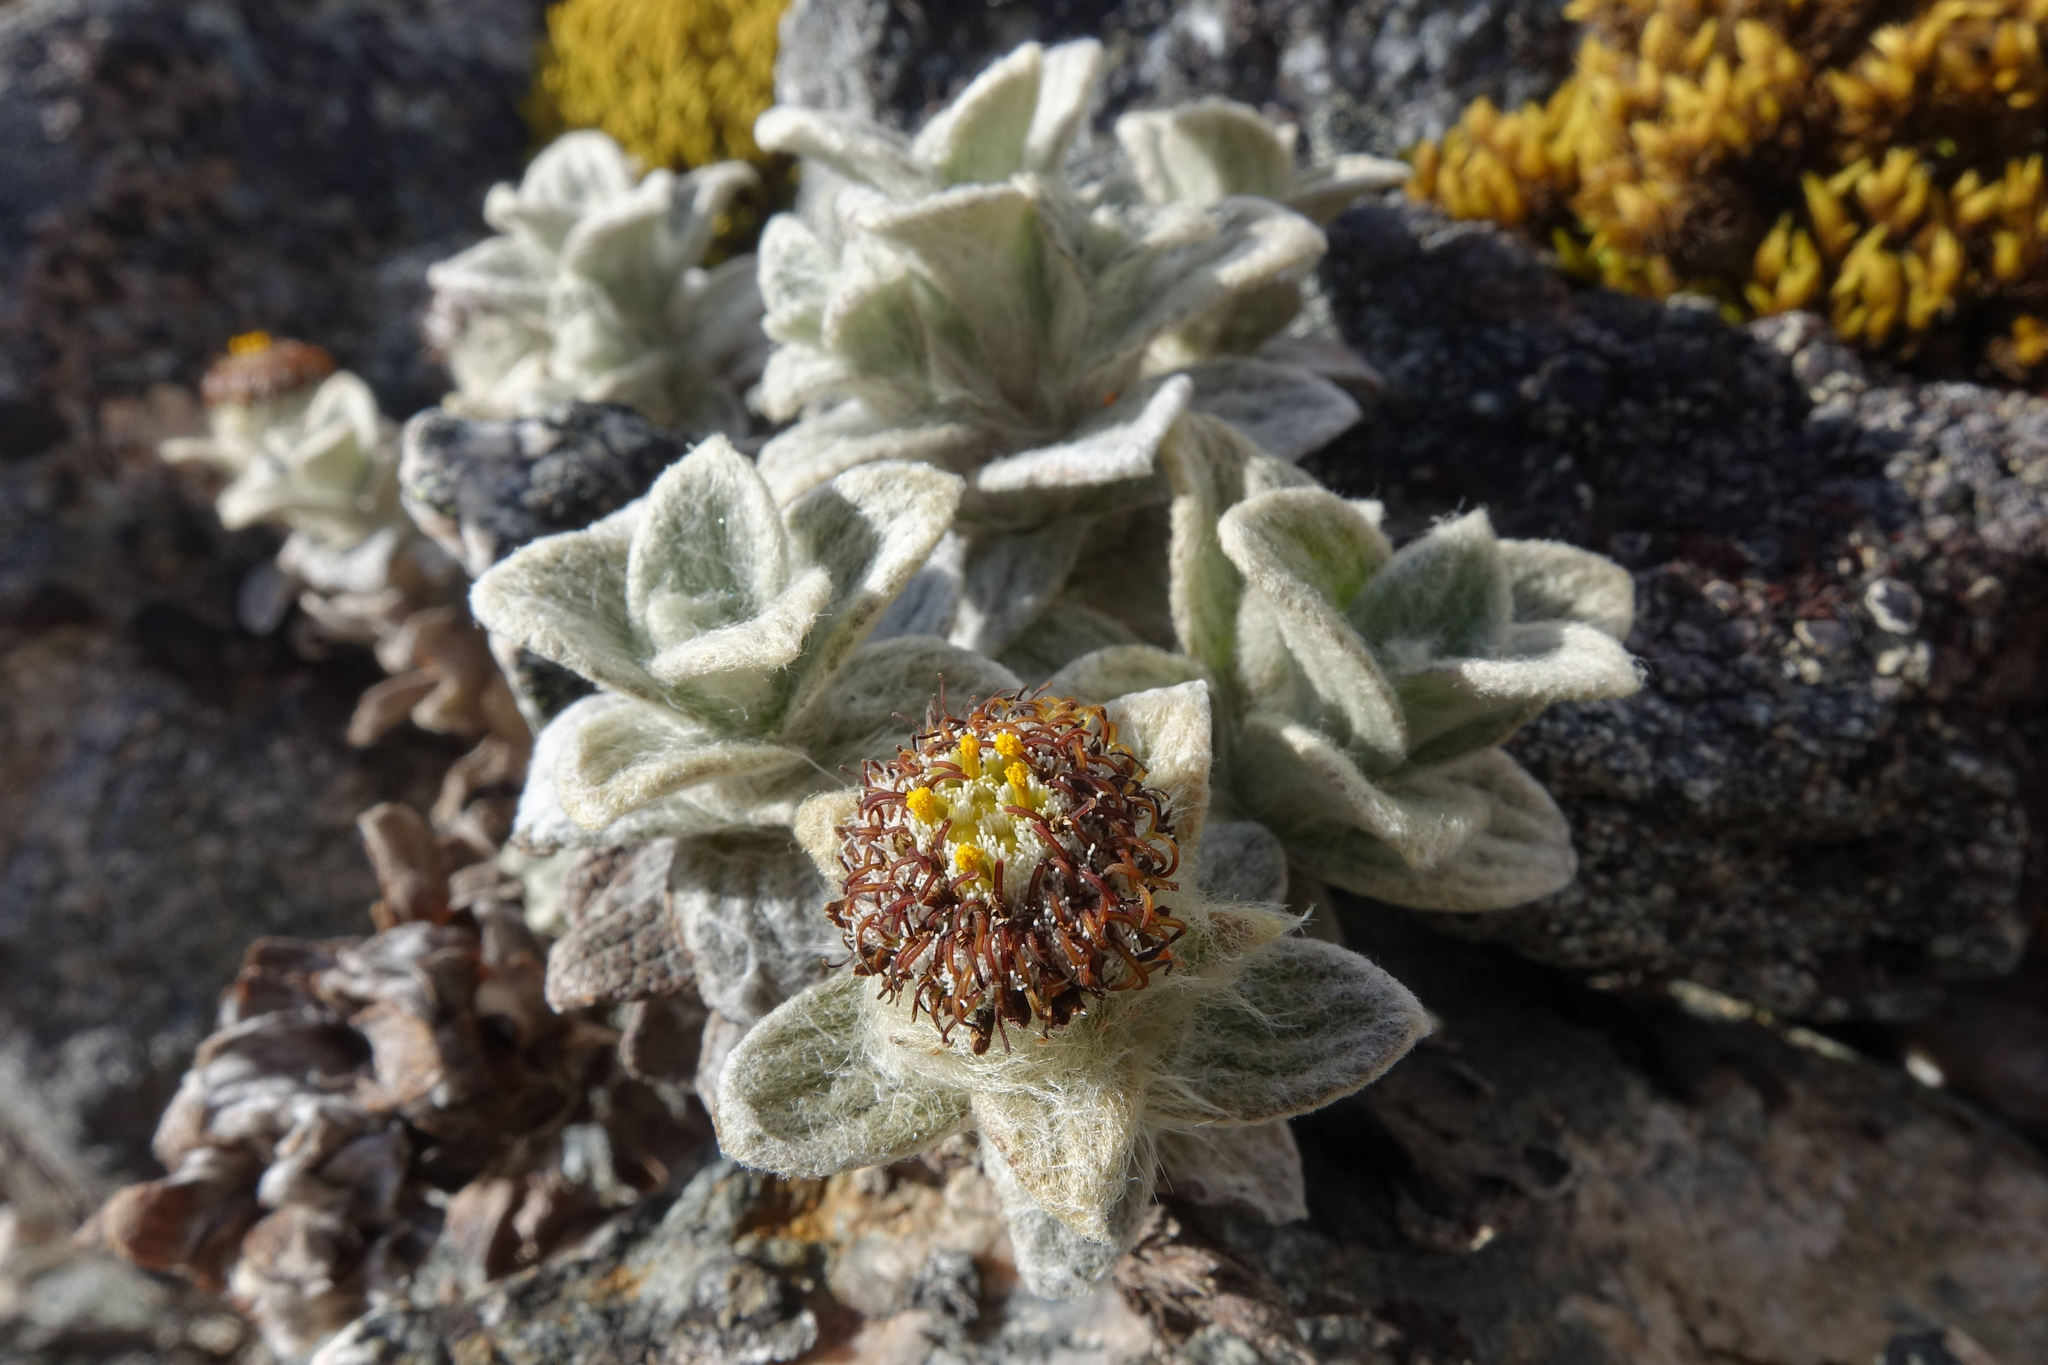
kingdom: Plantae
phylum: Tracheophyta
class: Magnoliopsida
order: Asterales
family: Asteraceae
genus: Haastia
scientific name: Haastia sinclairii
